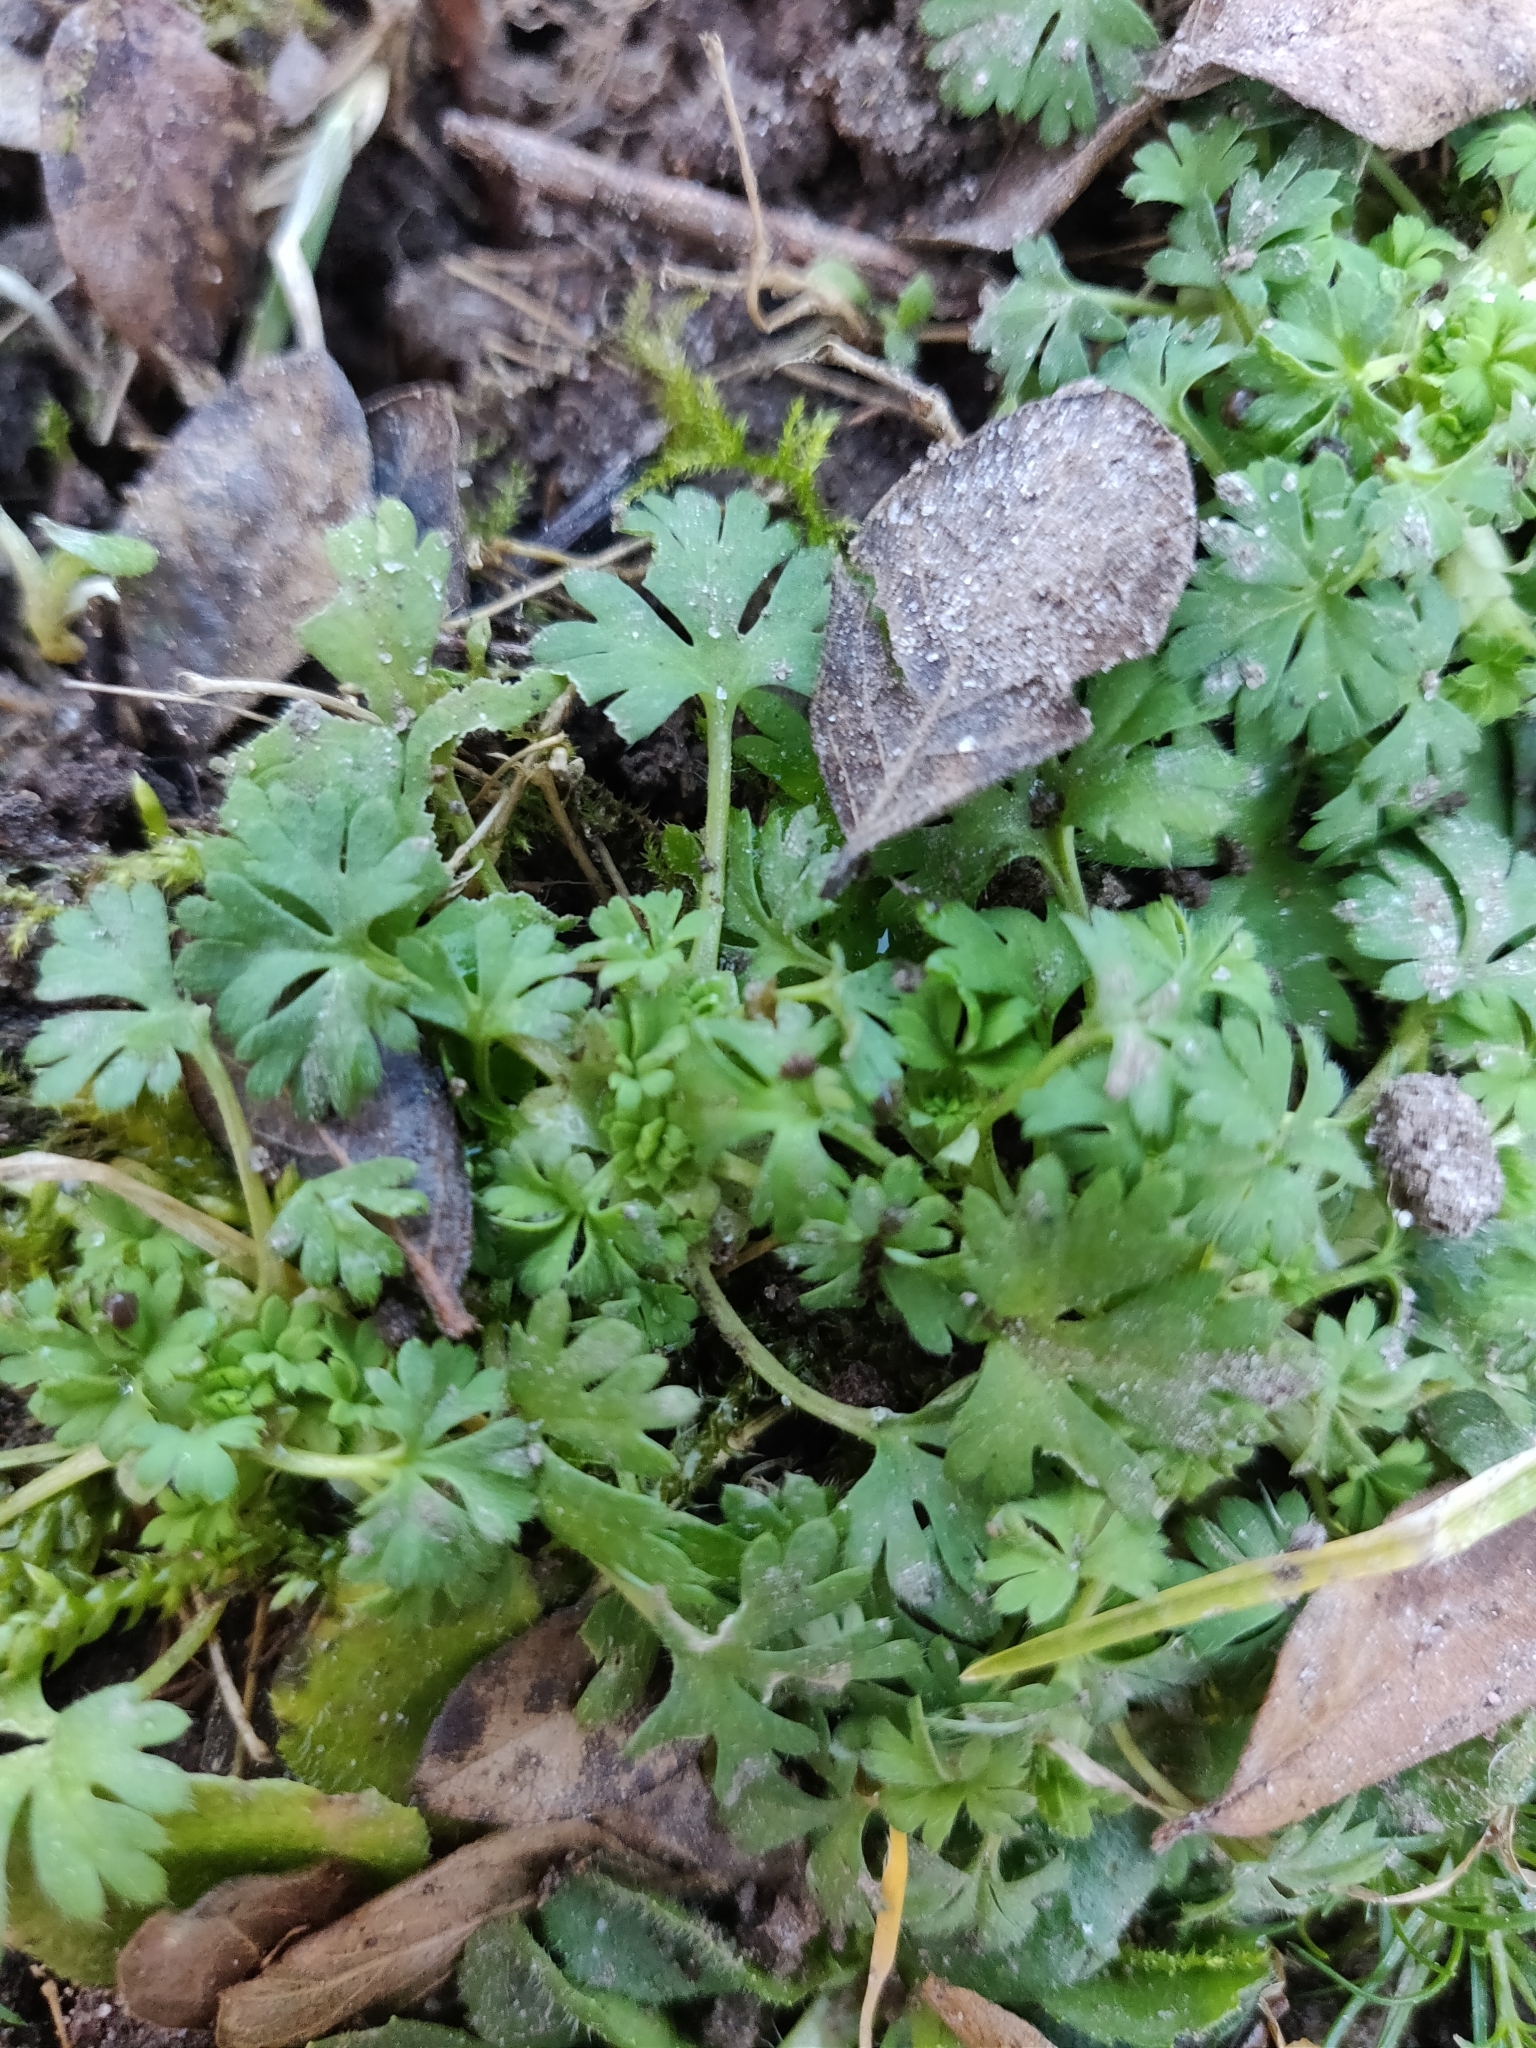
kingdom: Plantae
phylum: Tracheophyta
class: Magnoliopsida
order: Rosales
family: Rosaceae
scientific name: Rosaceae
